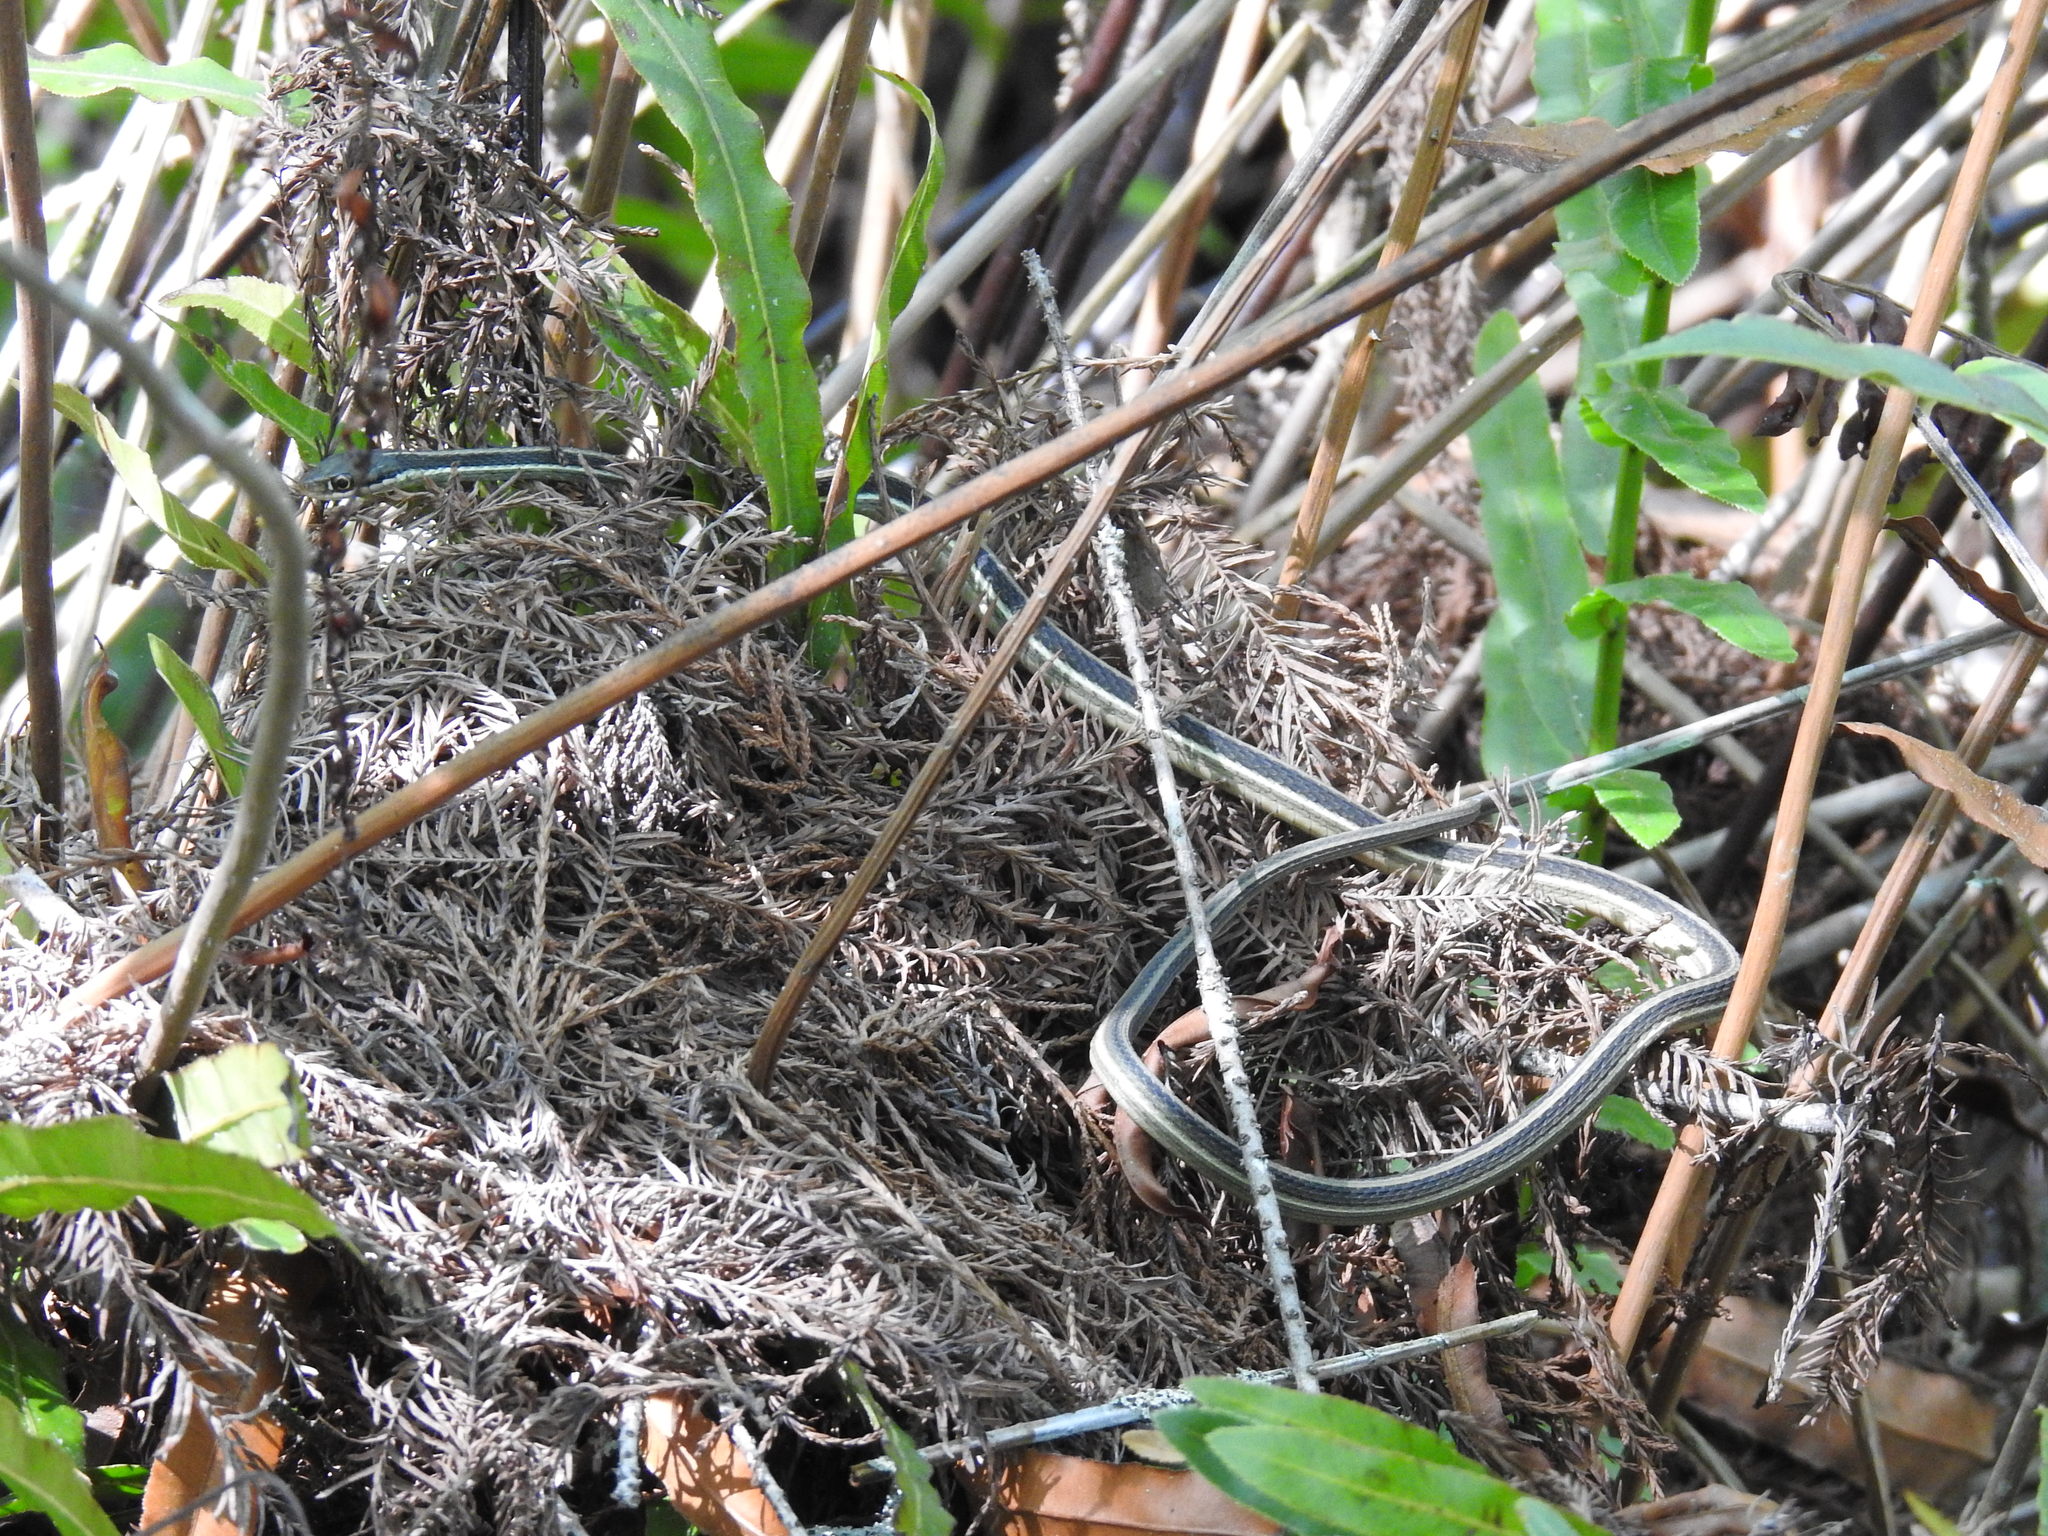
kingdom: Animalia
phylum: Chordata
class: Squamata
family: Colubridae
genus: Thamnophis
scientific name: Thamnophis saurita
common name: Eastern ribbonsnake
